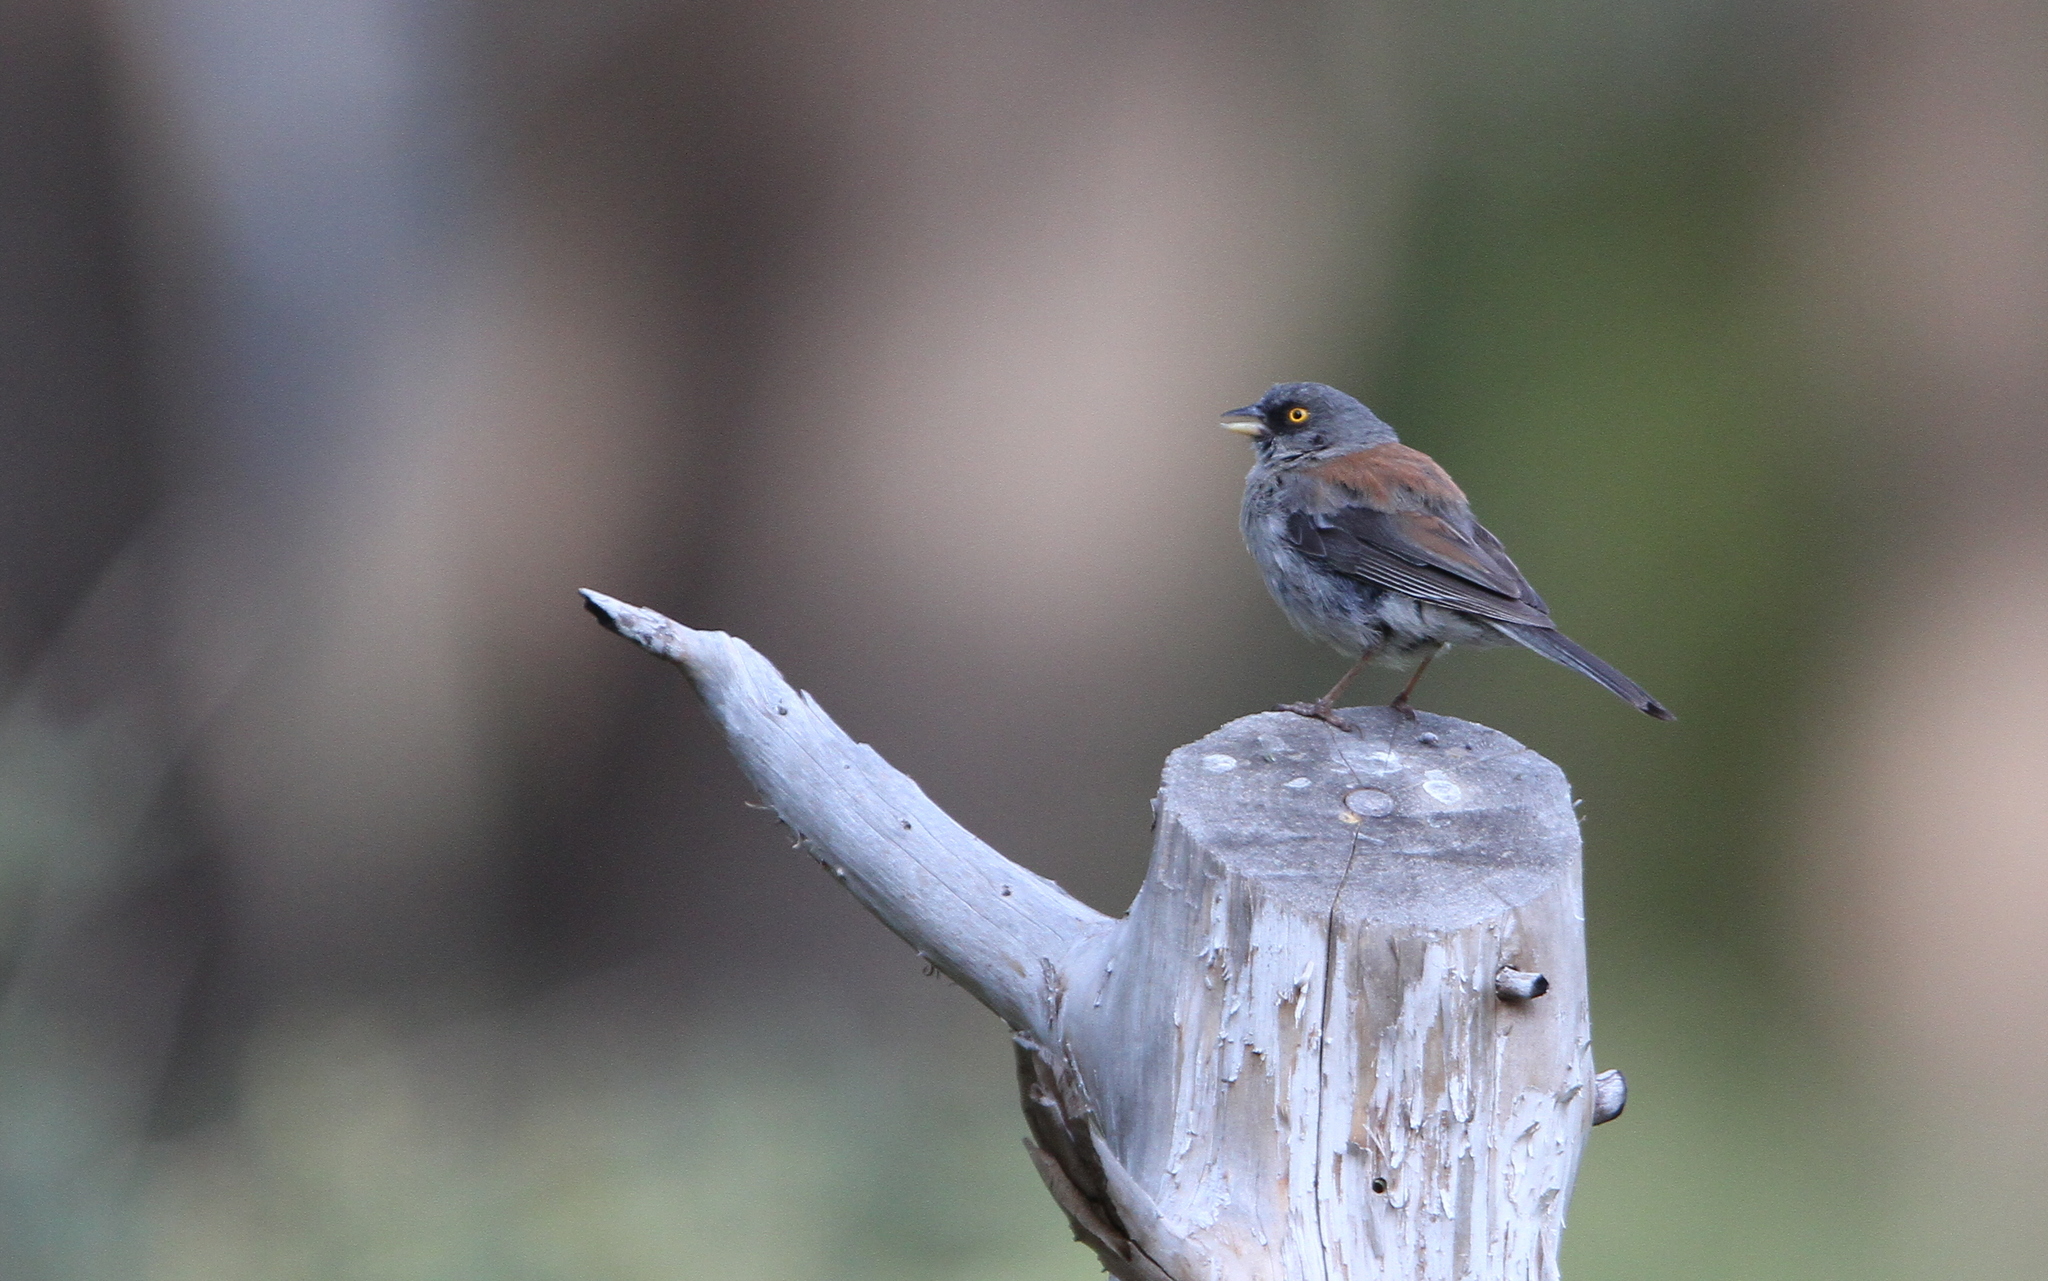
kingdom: Animalia
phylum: Chordata
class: Aves
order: Passeriformes
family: Passerellidae
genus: Junco
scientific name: Junco phaeonotus
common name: Yellow-eyed junco
